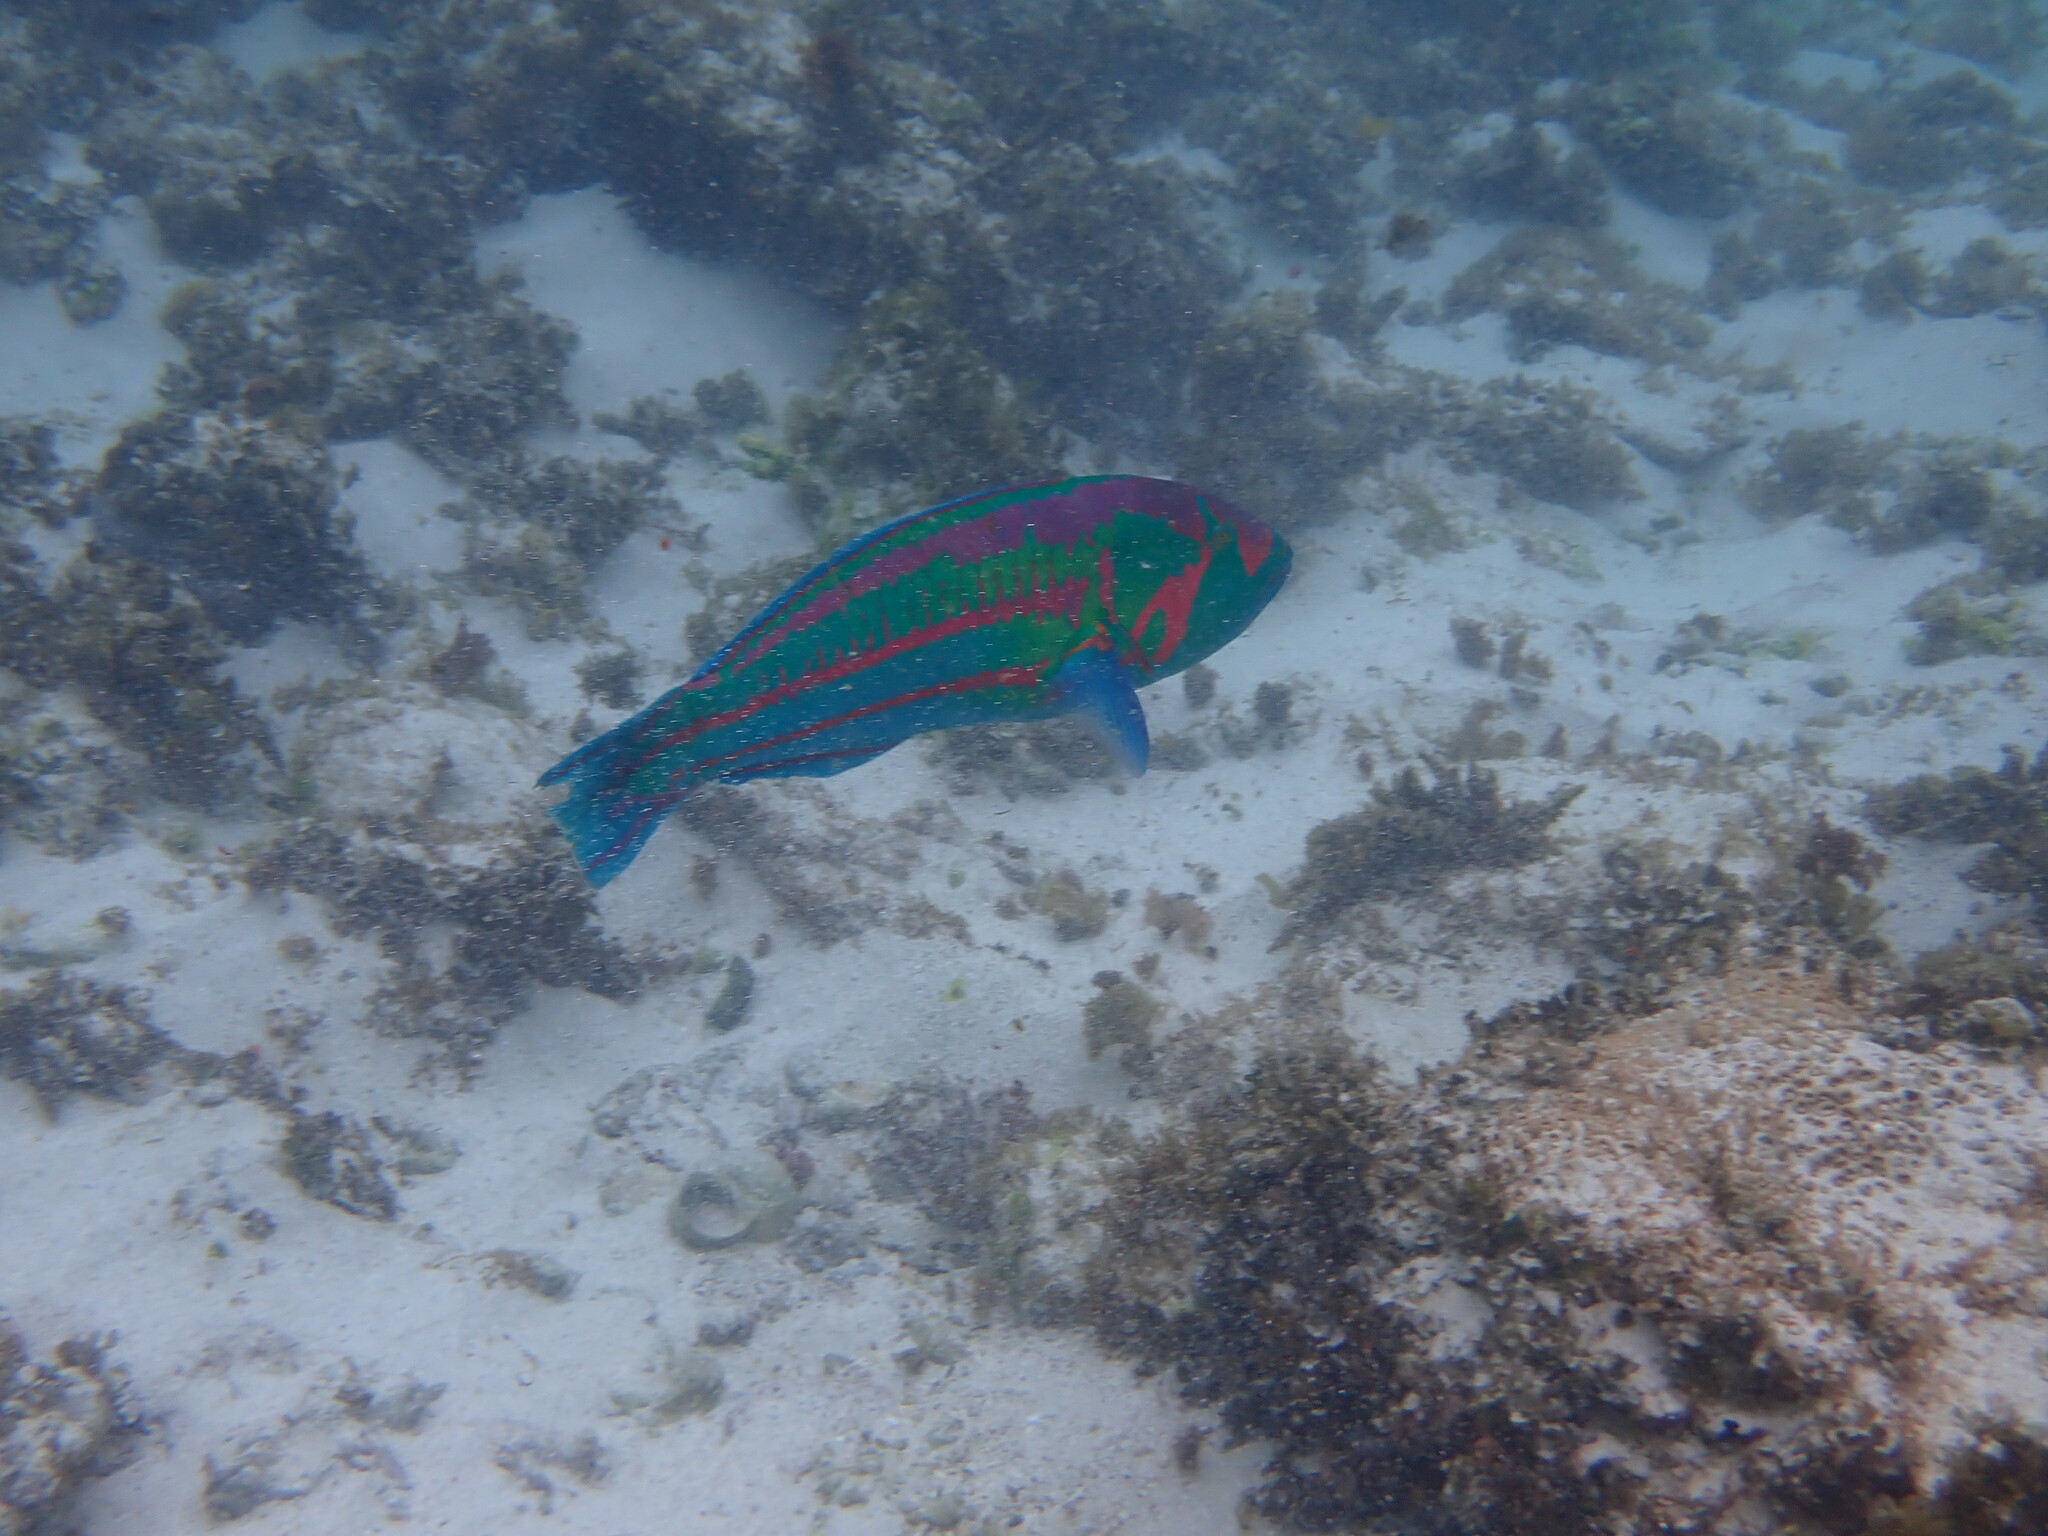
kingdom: Animalia
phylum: Chordata
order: Perciformes
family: Labridae
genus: Thalassoma
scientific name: Thalassoma purpureum
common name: Parrotfish
